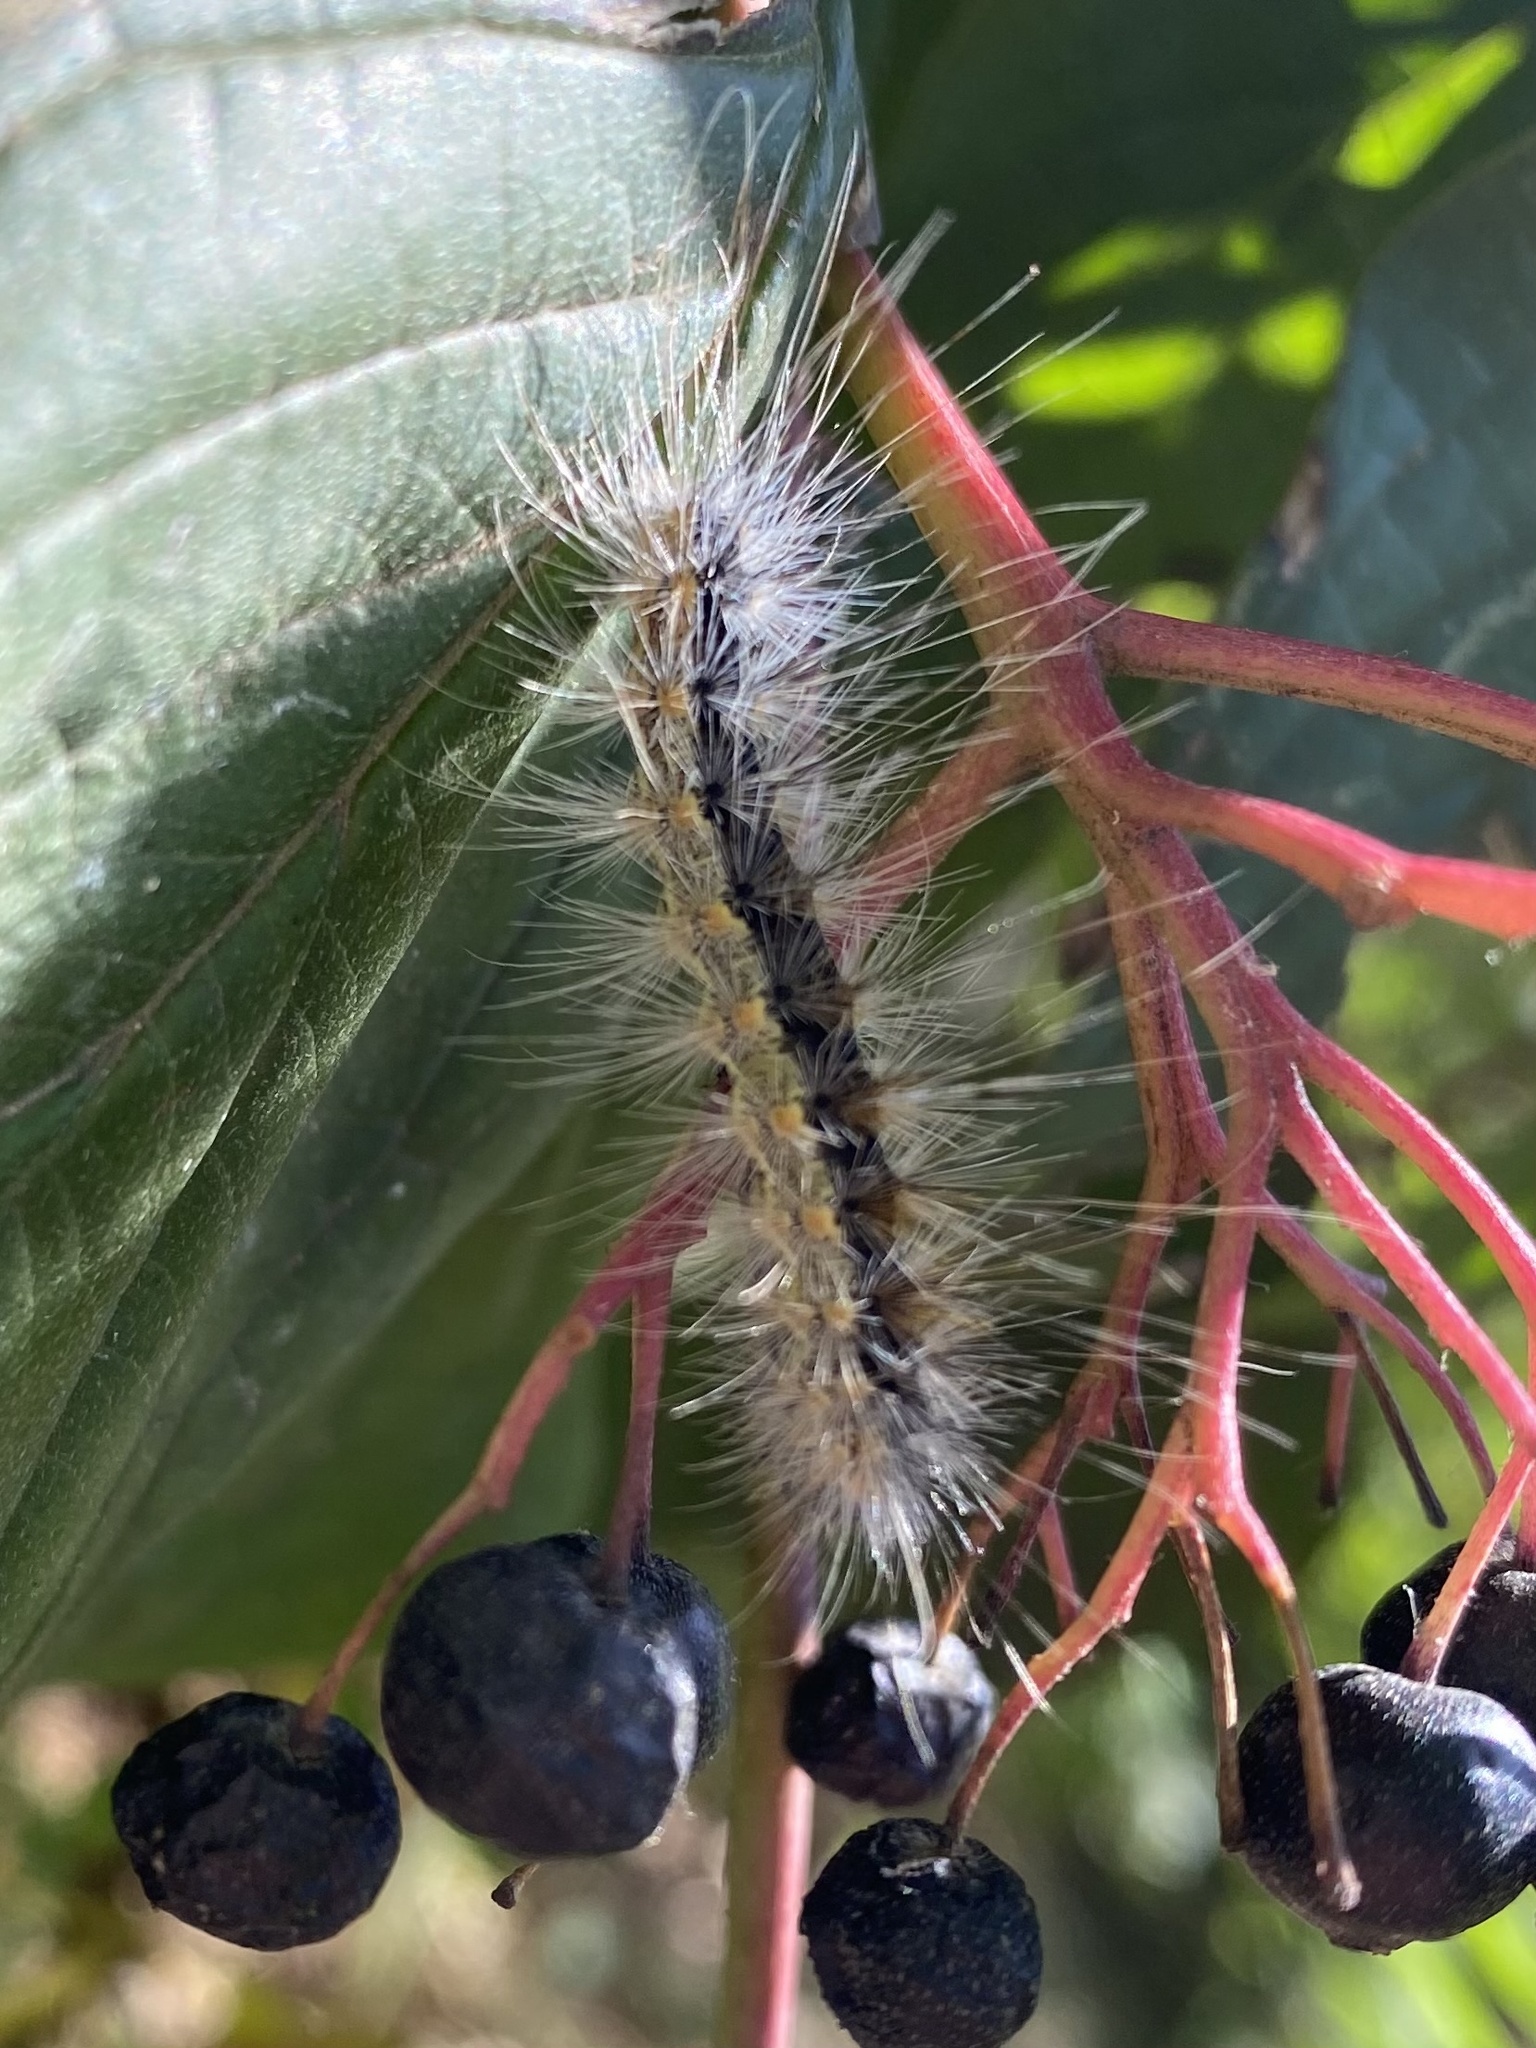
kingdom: Animalia
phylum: Arthropoda
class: Insecta
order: Lepidoptera
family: Erebidae
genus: Hyphantria
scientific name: Hyphantria cunea
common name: American white moth
